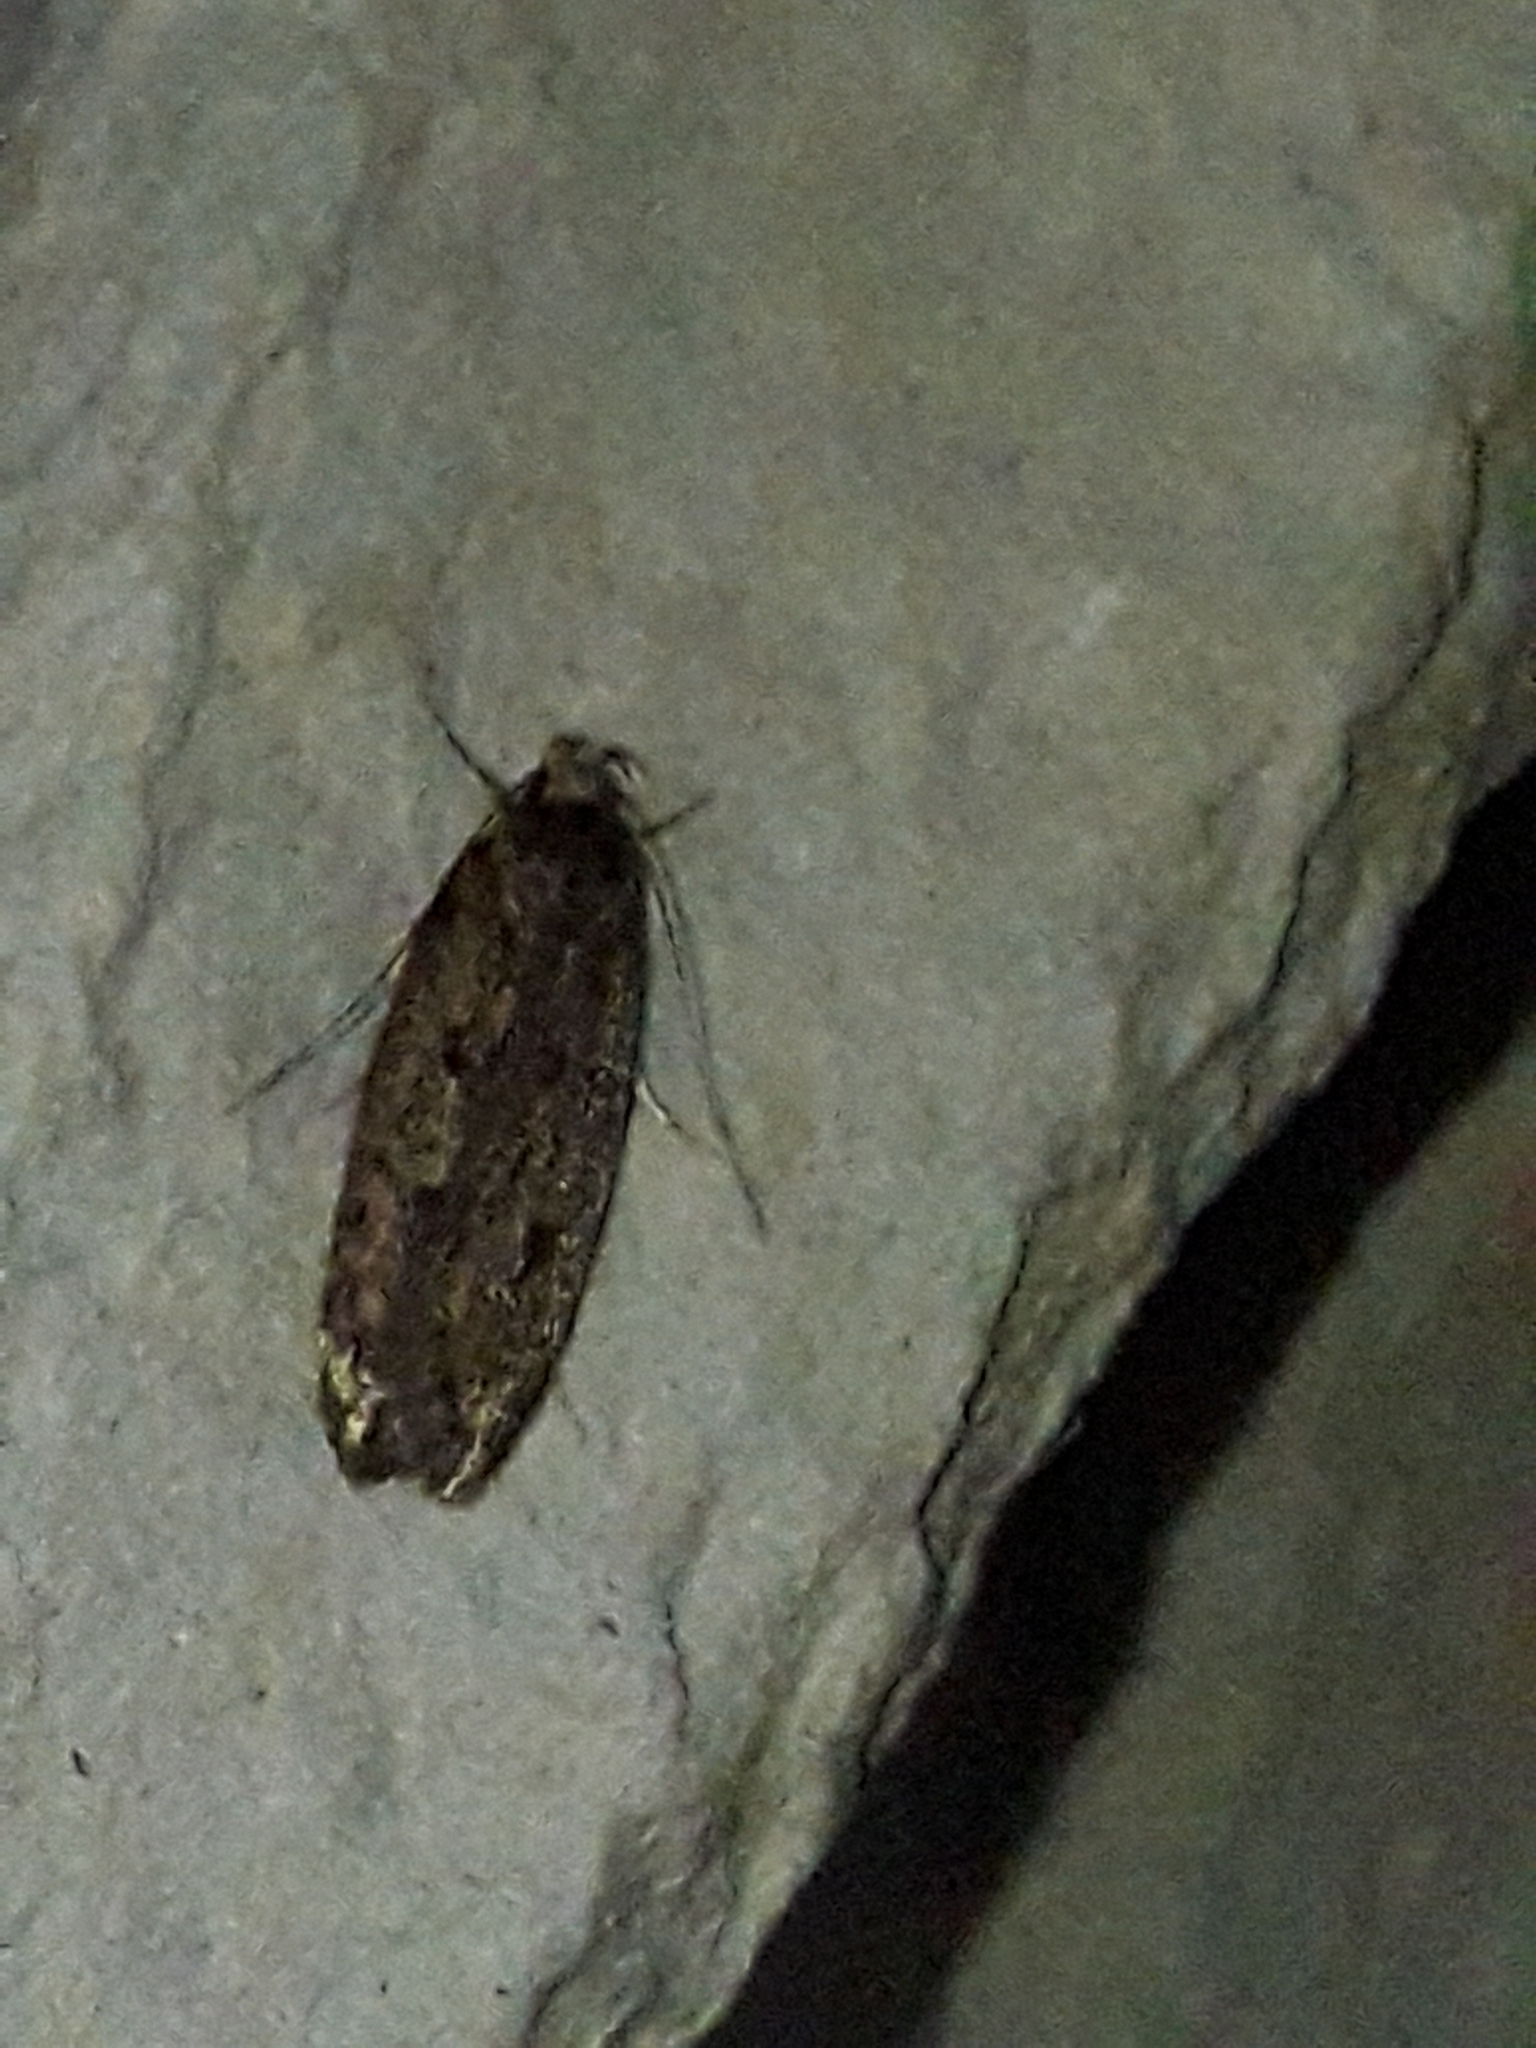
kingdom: Animalia
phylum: Arthropoda
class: Insecta
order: Lepidoptera
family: Oecophoridae
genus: Hofmannophila
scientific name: Hofmannophila pseudospretella
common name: Brown house moth
